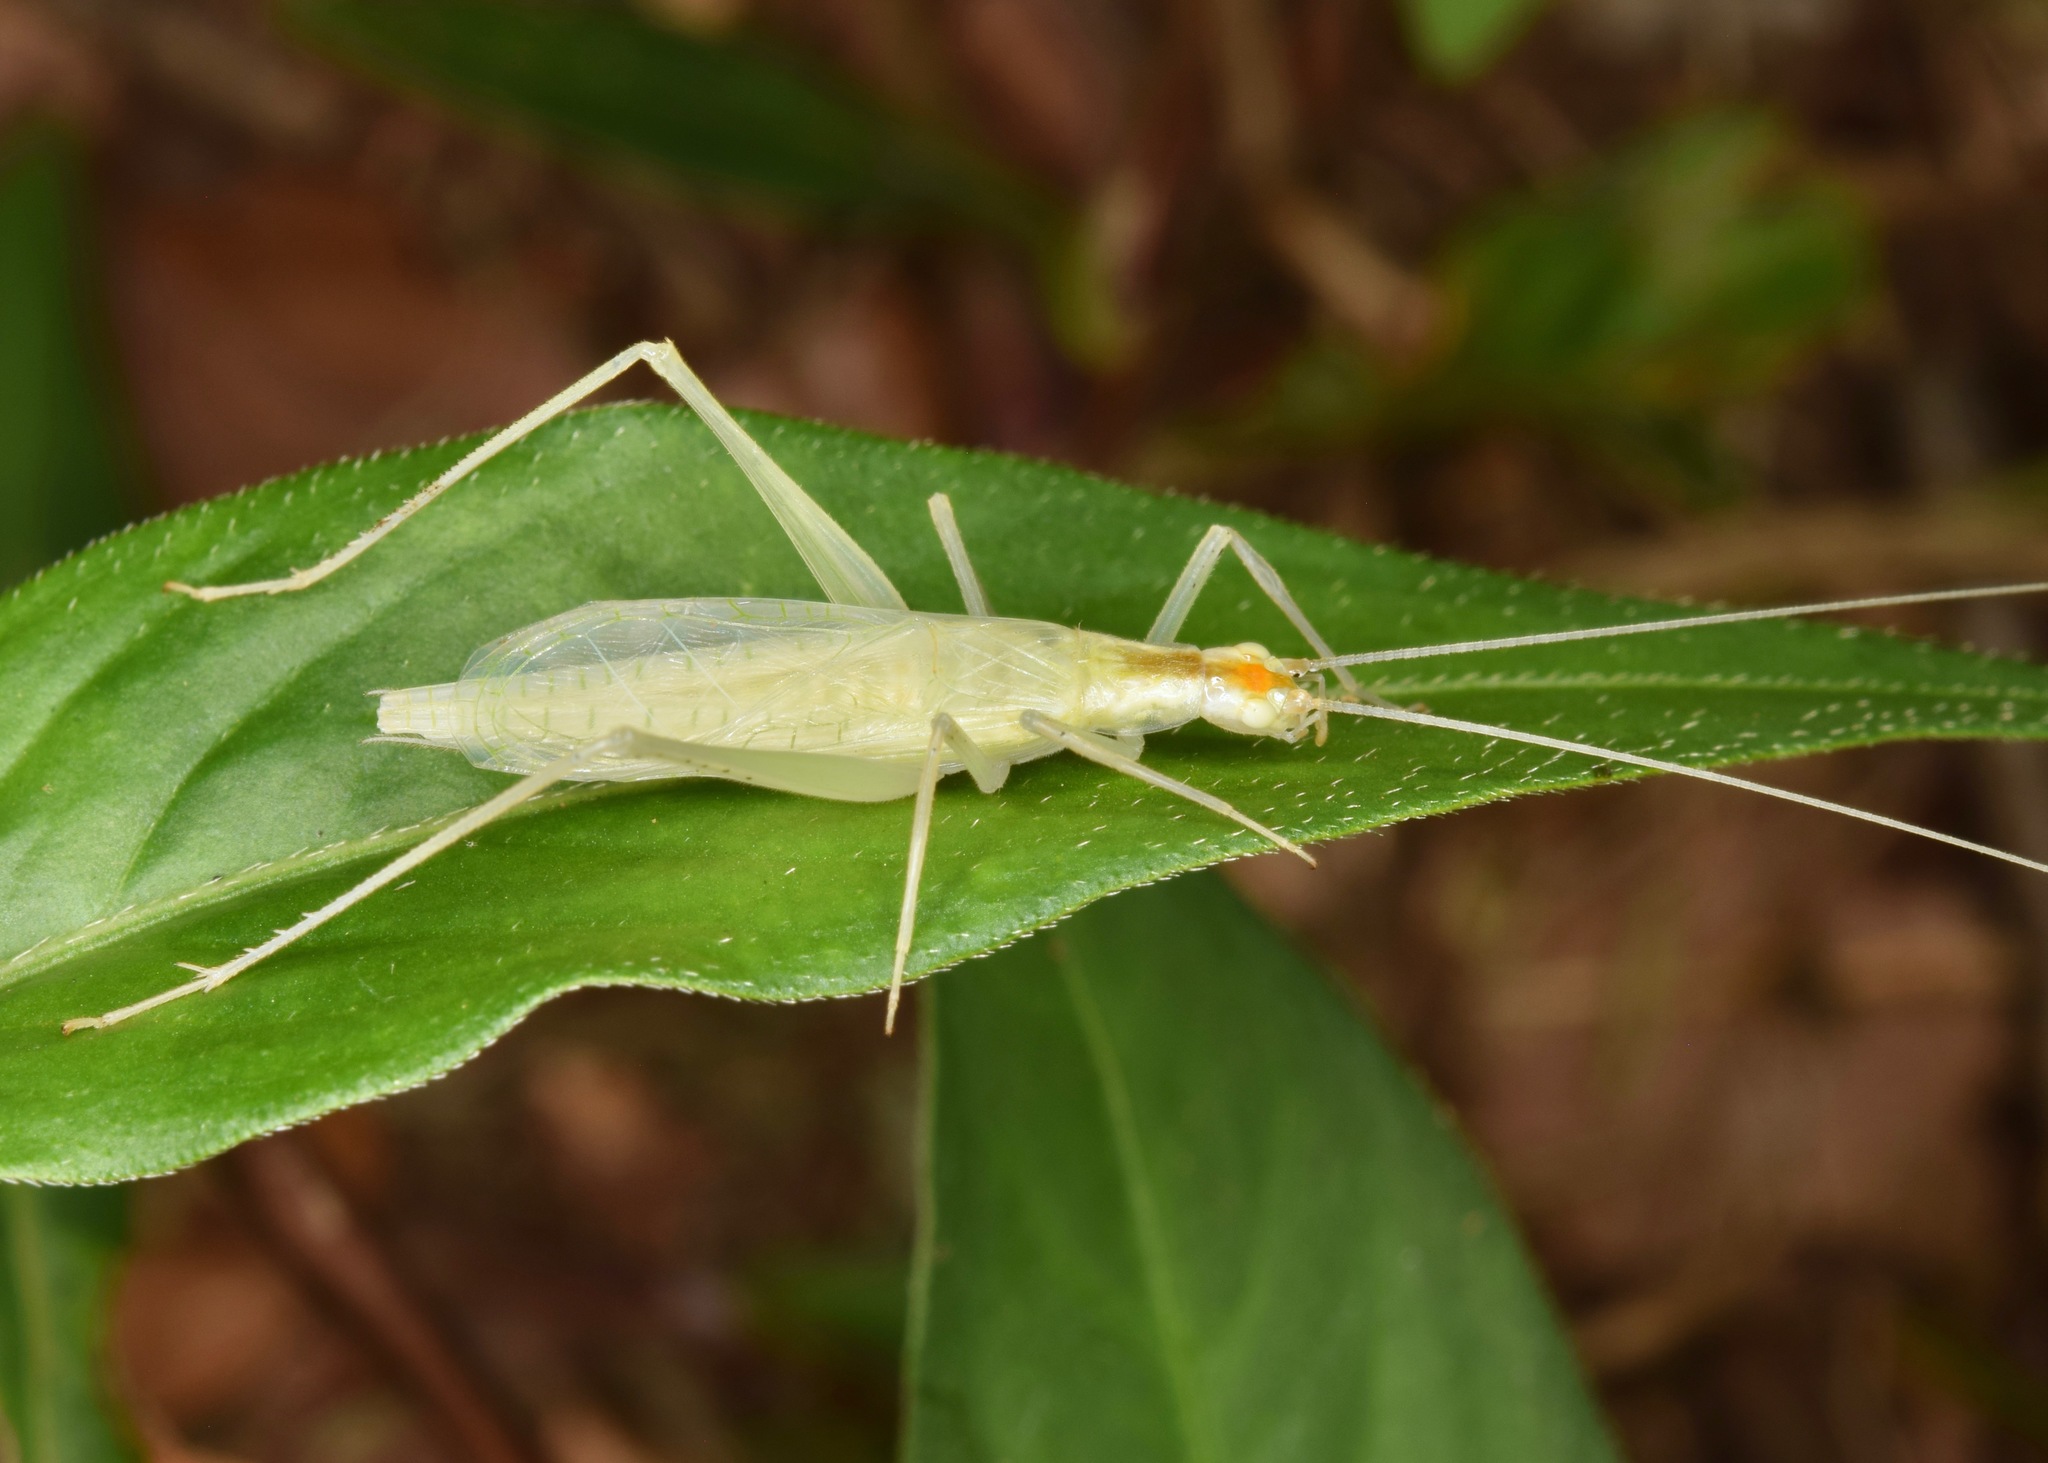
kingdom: Animalia
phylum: Arthropoda
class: Insecta
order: Orthoptera
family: Gryllidae
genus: Oecanthus
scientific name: Oecanthus niveus
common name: Narrow-winged tree cricket
